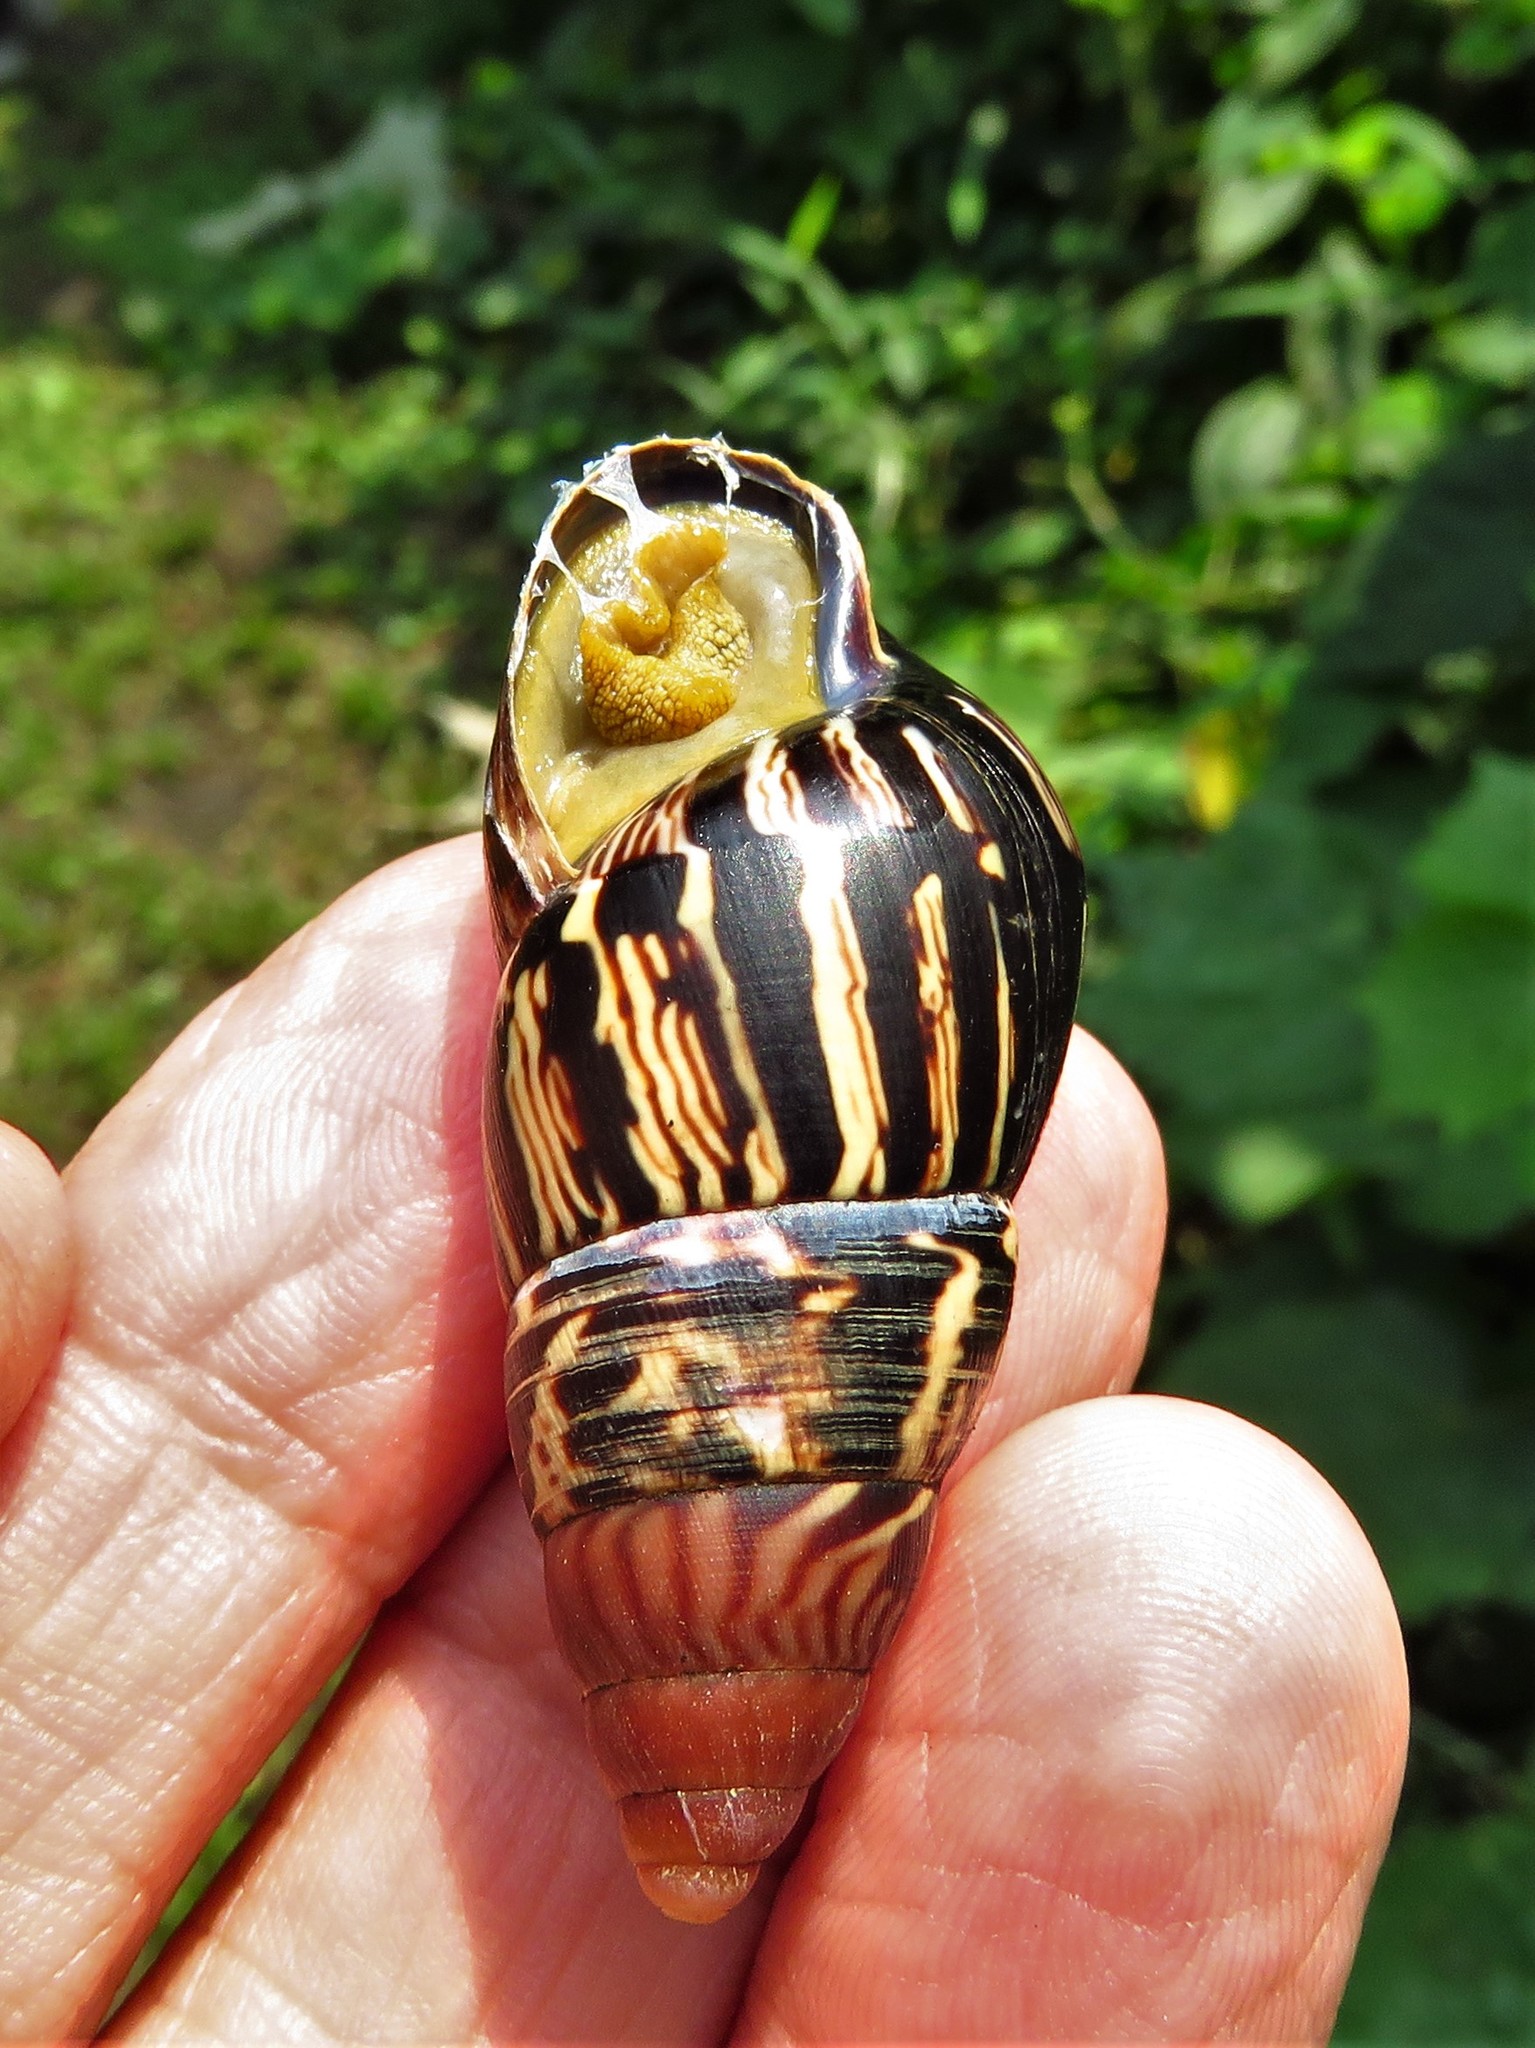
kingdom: Animalia
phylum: Mollusca
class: Gastropoda
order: Stylommatophora
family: Achatinidae
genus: Limicolaria
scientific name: Limicolaria martensiana
